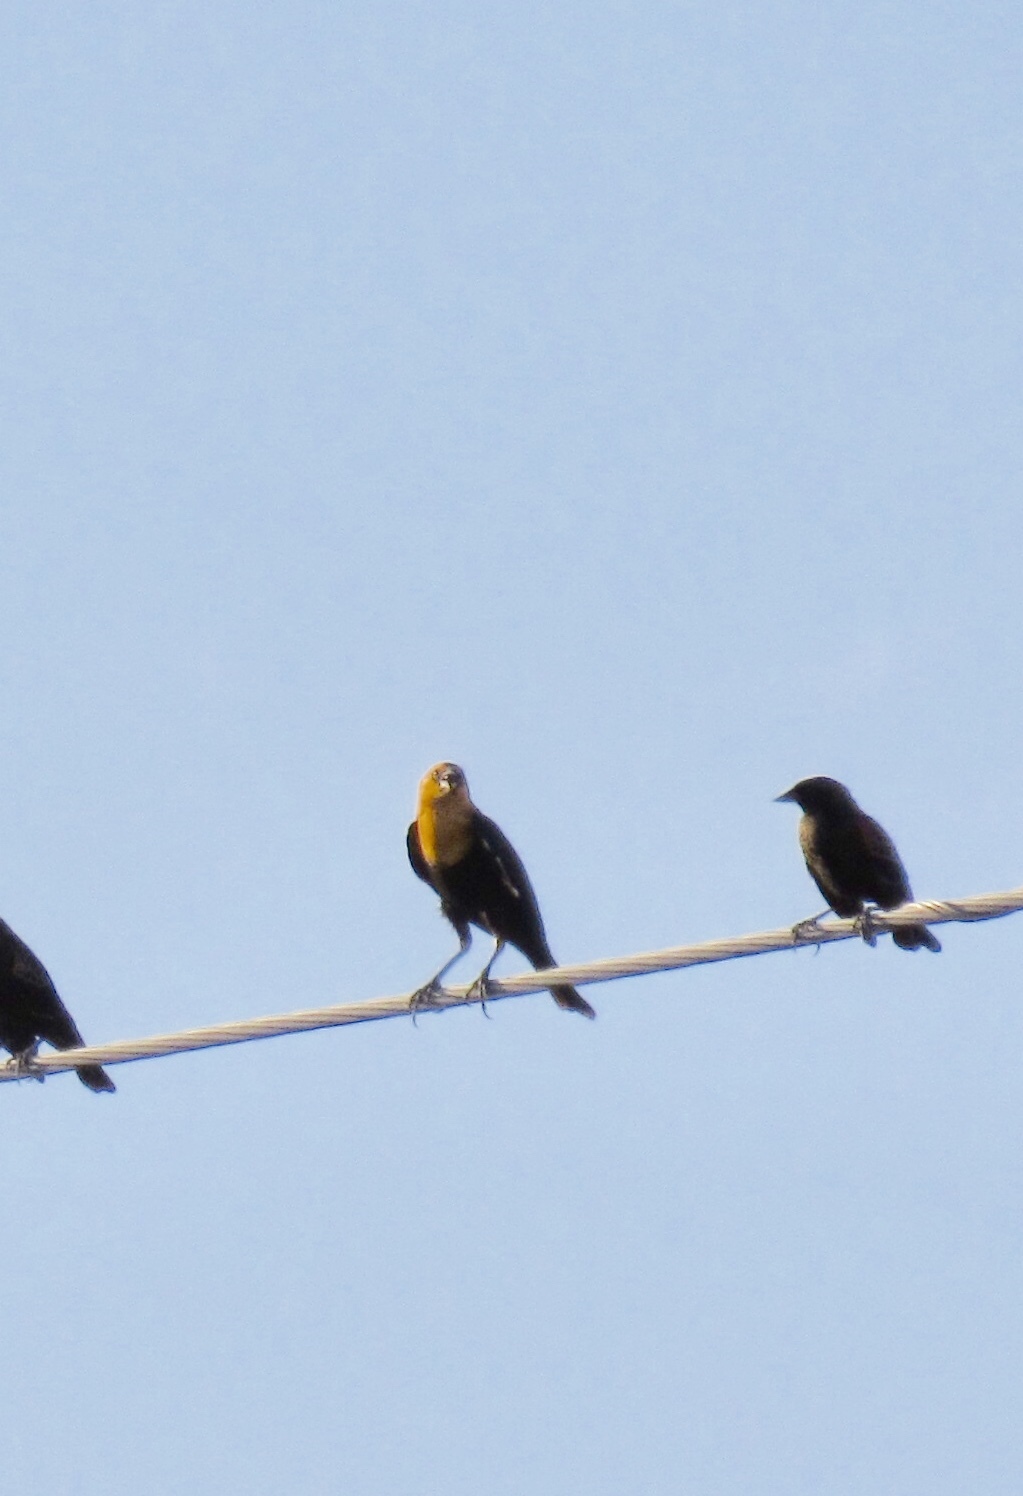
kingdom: Animalia
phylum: Chordata
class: Aves
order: Passeriformes
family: Icteridae
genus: Xanthocephalus
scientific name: Xanthocephalus xanthocephalus
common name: Yellow-headed blackbird
